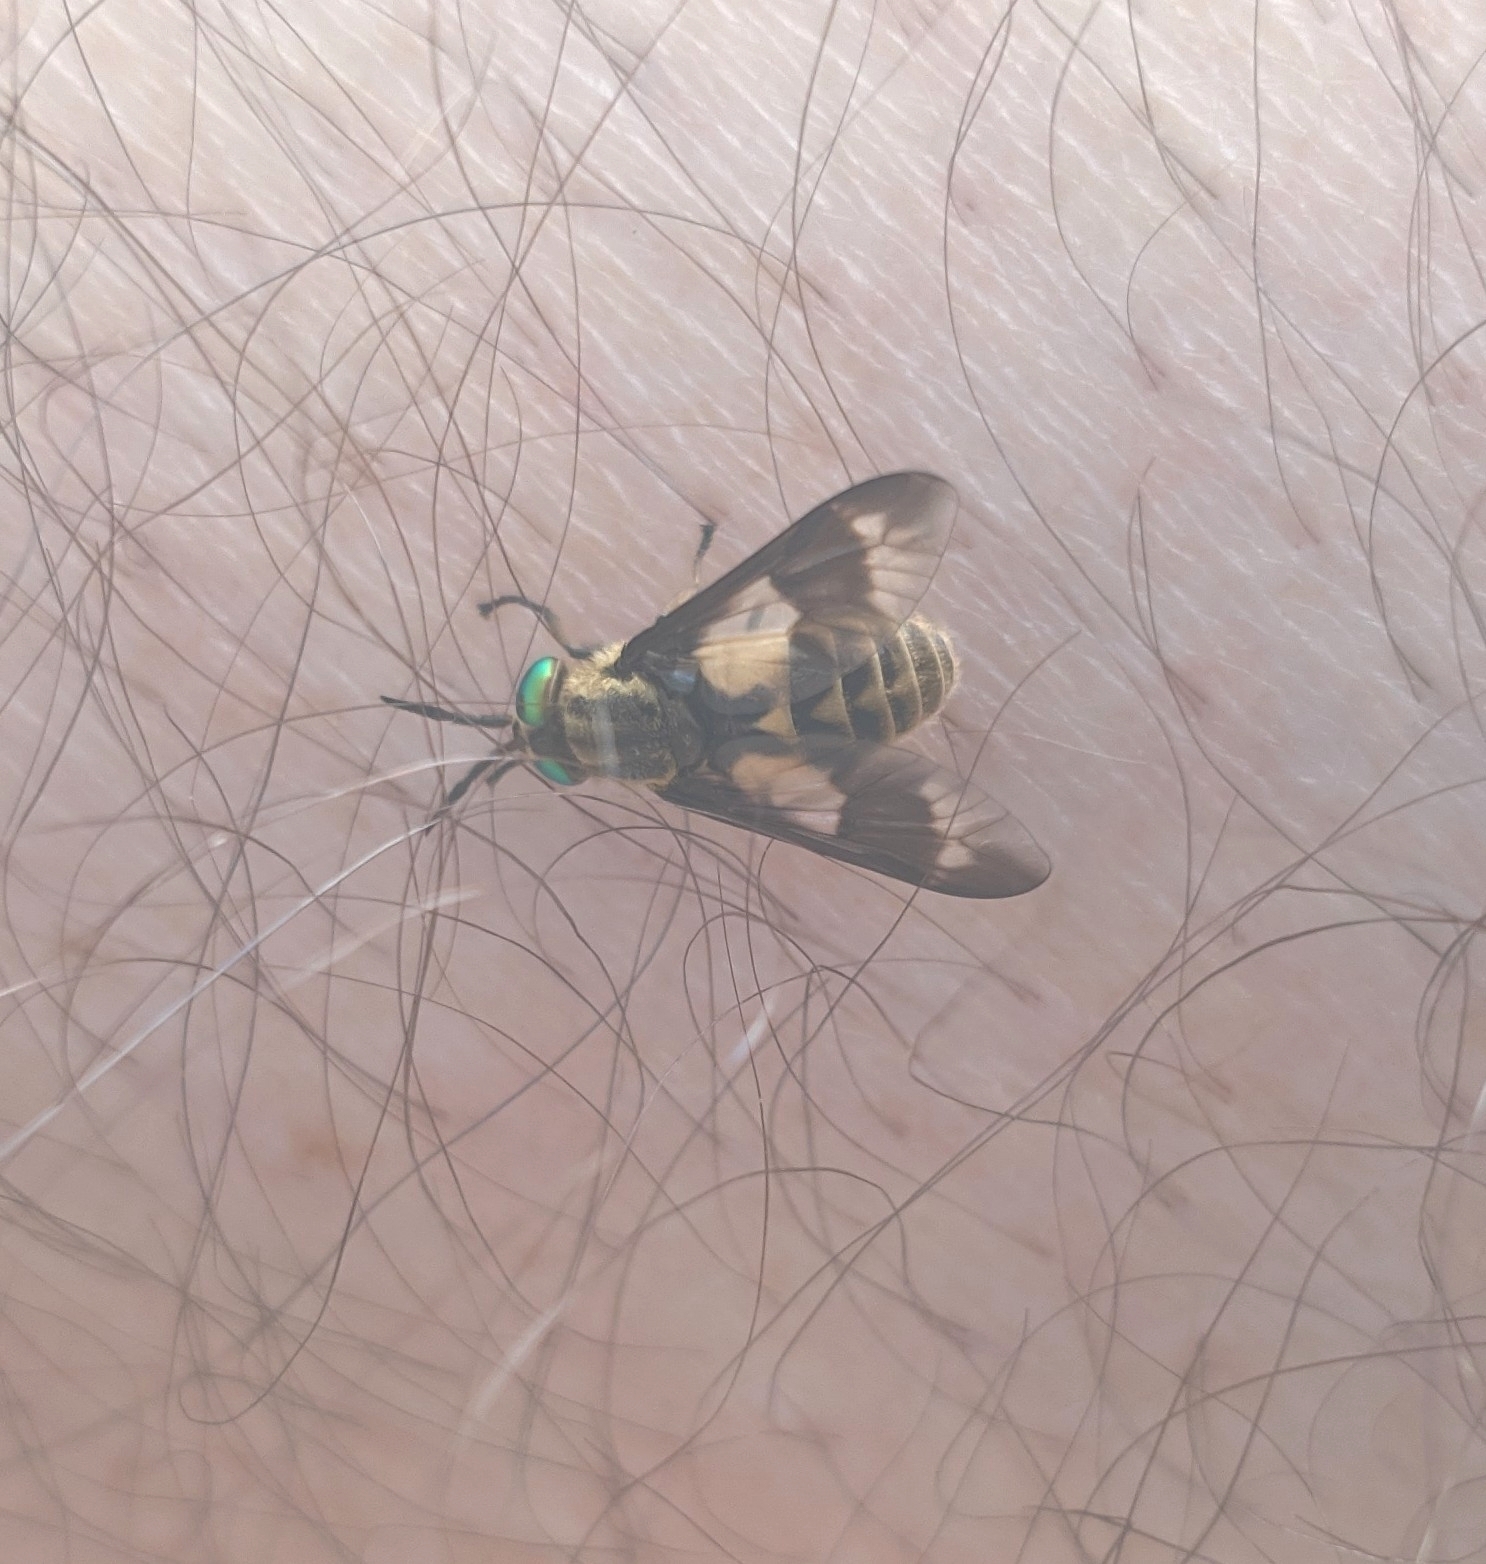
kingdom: Animalia
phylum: Arthropoda
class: Insecta
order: Diptera
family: Tabanidae
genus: Chrysops
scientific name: Chrysops relictus
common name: Twin-lobed deerfly
